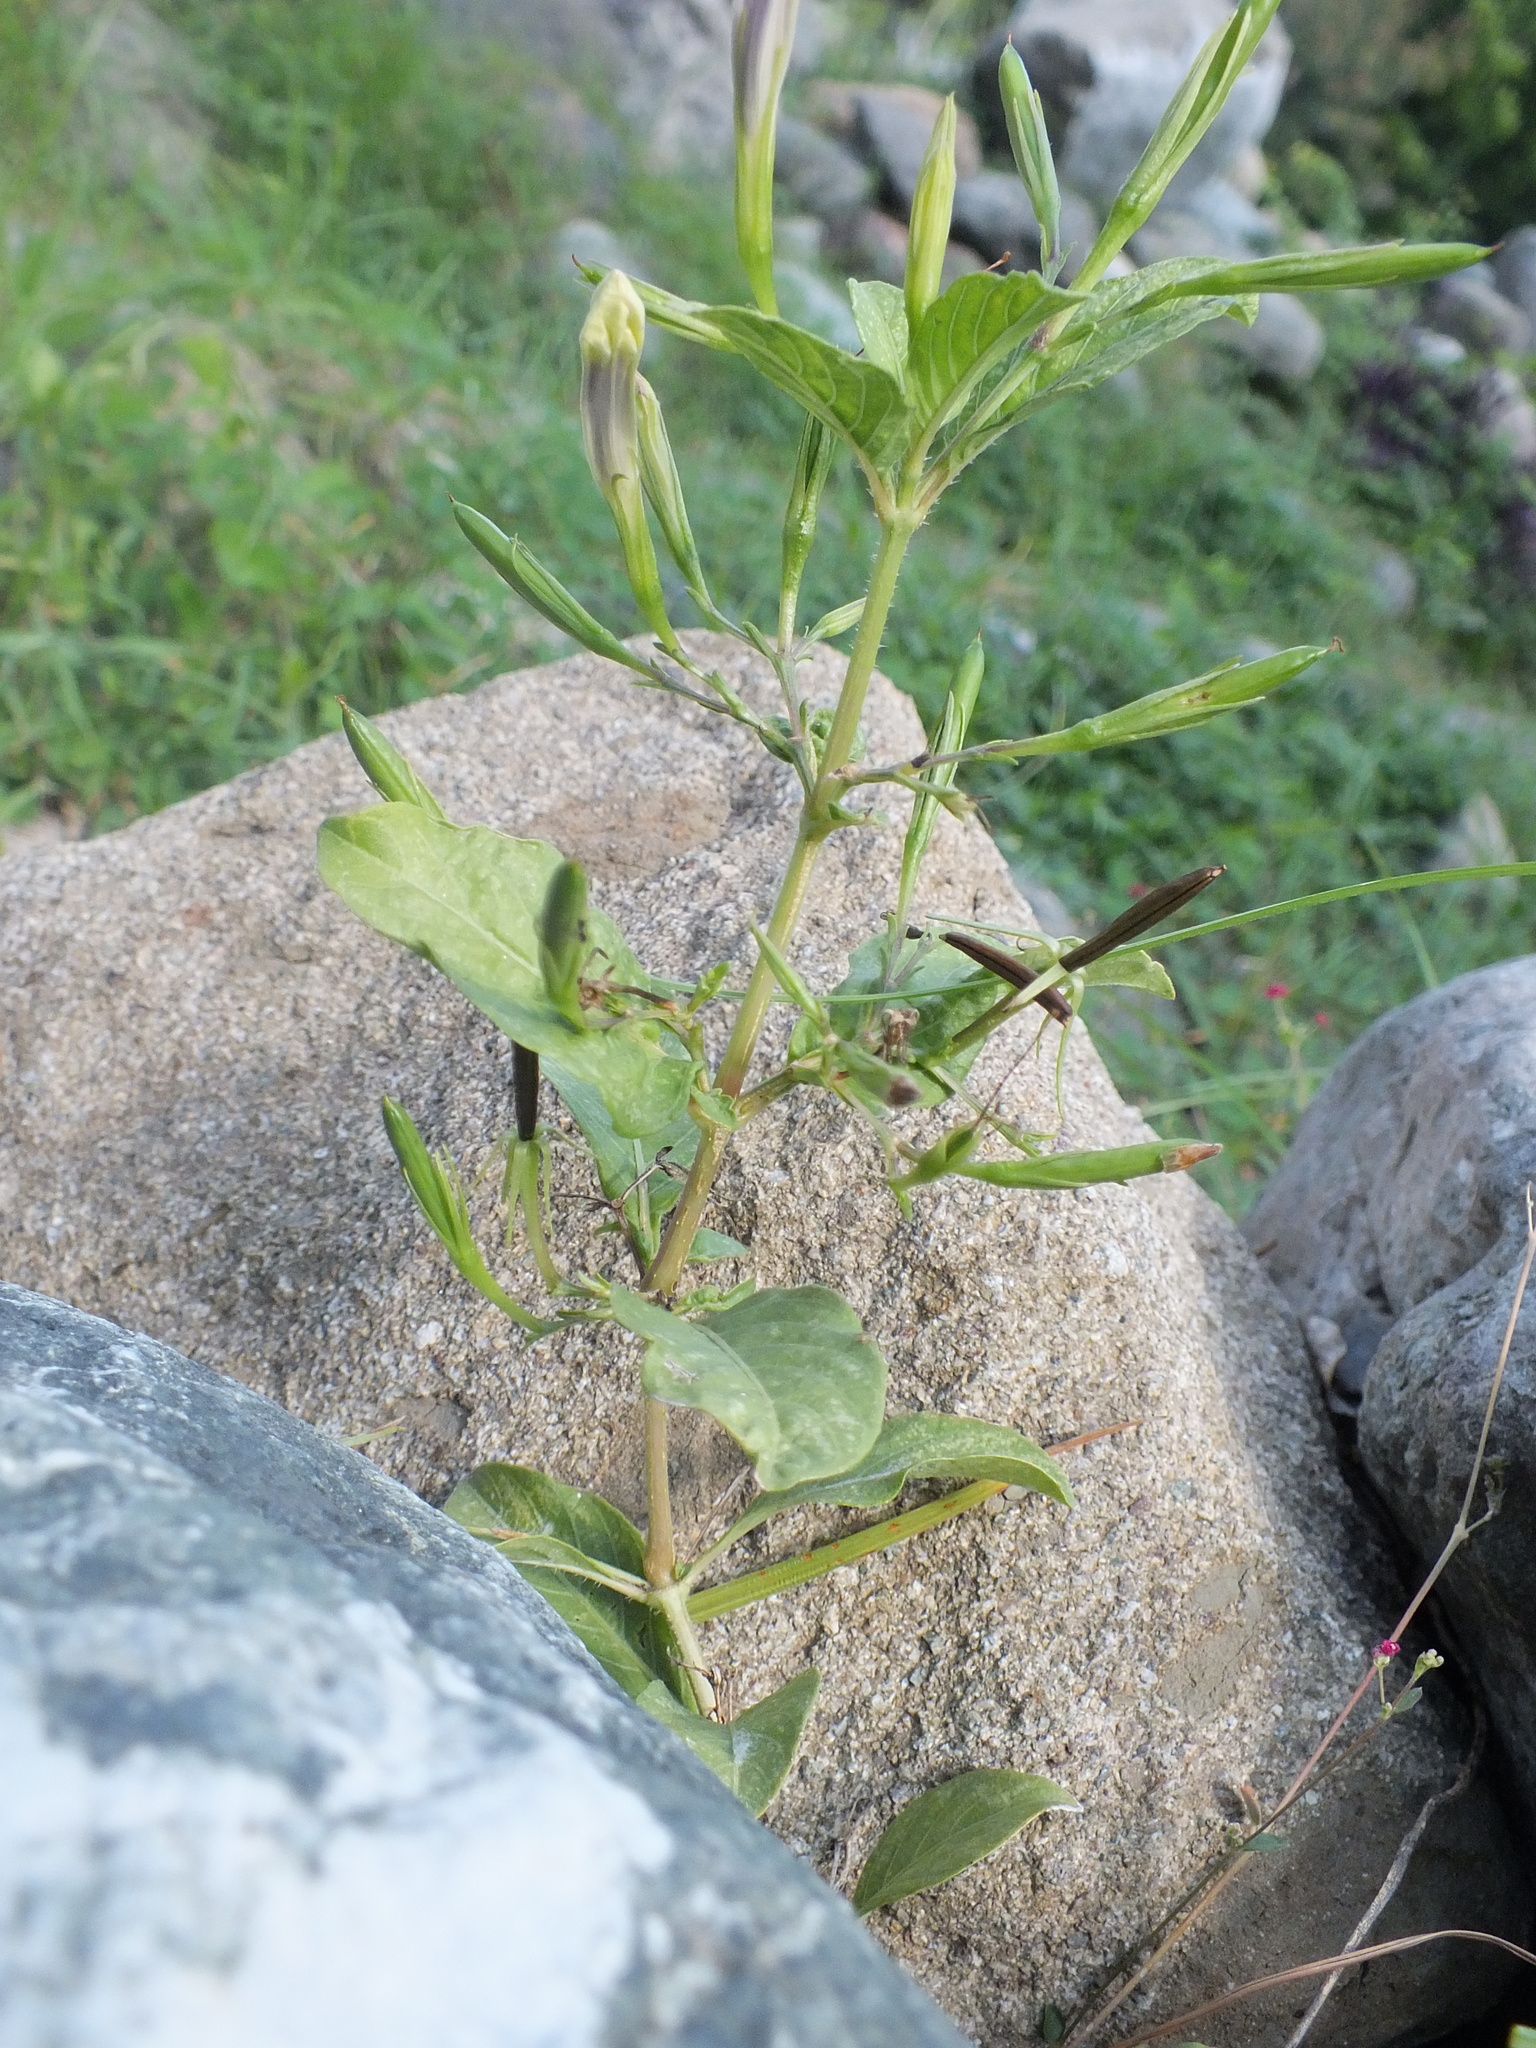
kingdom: Plantae
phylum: Tracheophyta
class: Magnoliopsida
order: Lamiales
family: Acanthaceae
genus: Ruellia
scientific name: Ruellia tuberosa
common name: Devil's bit
